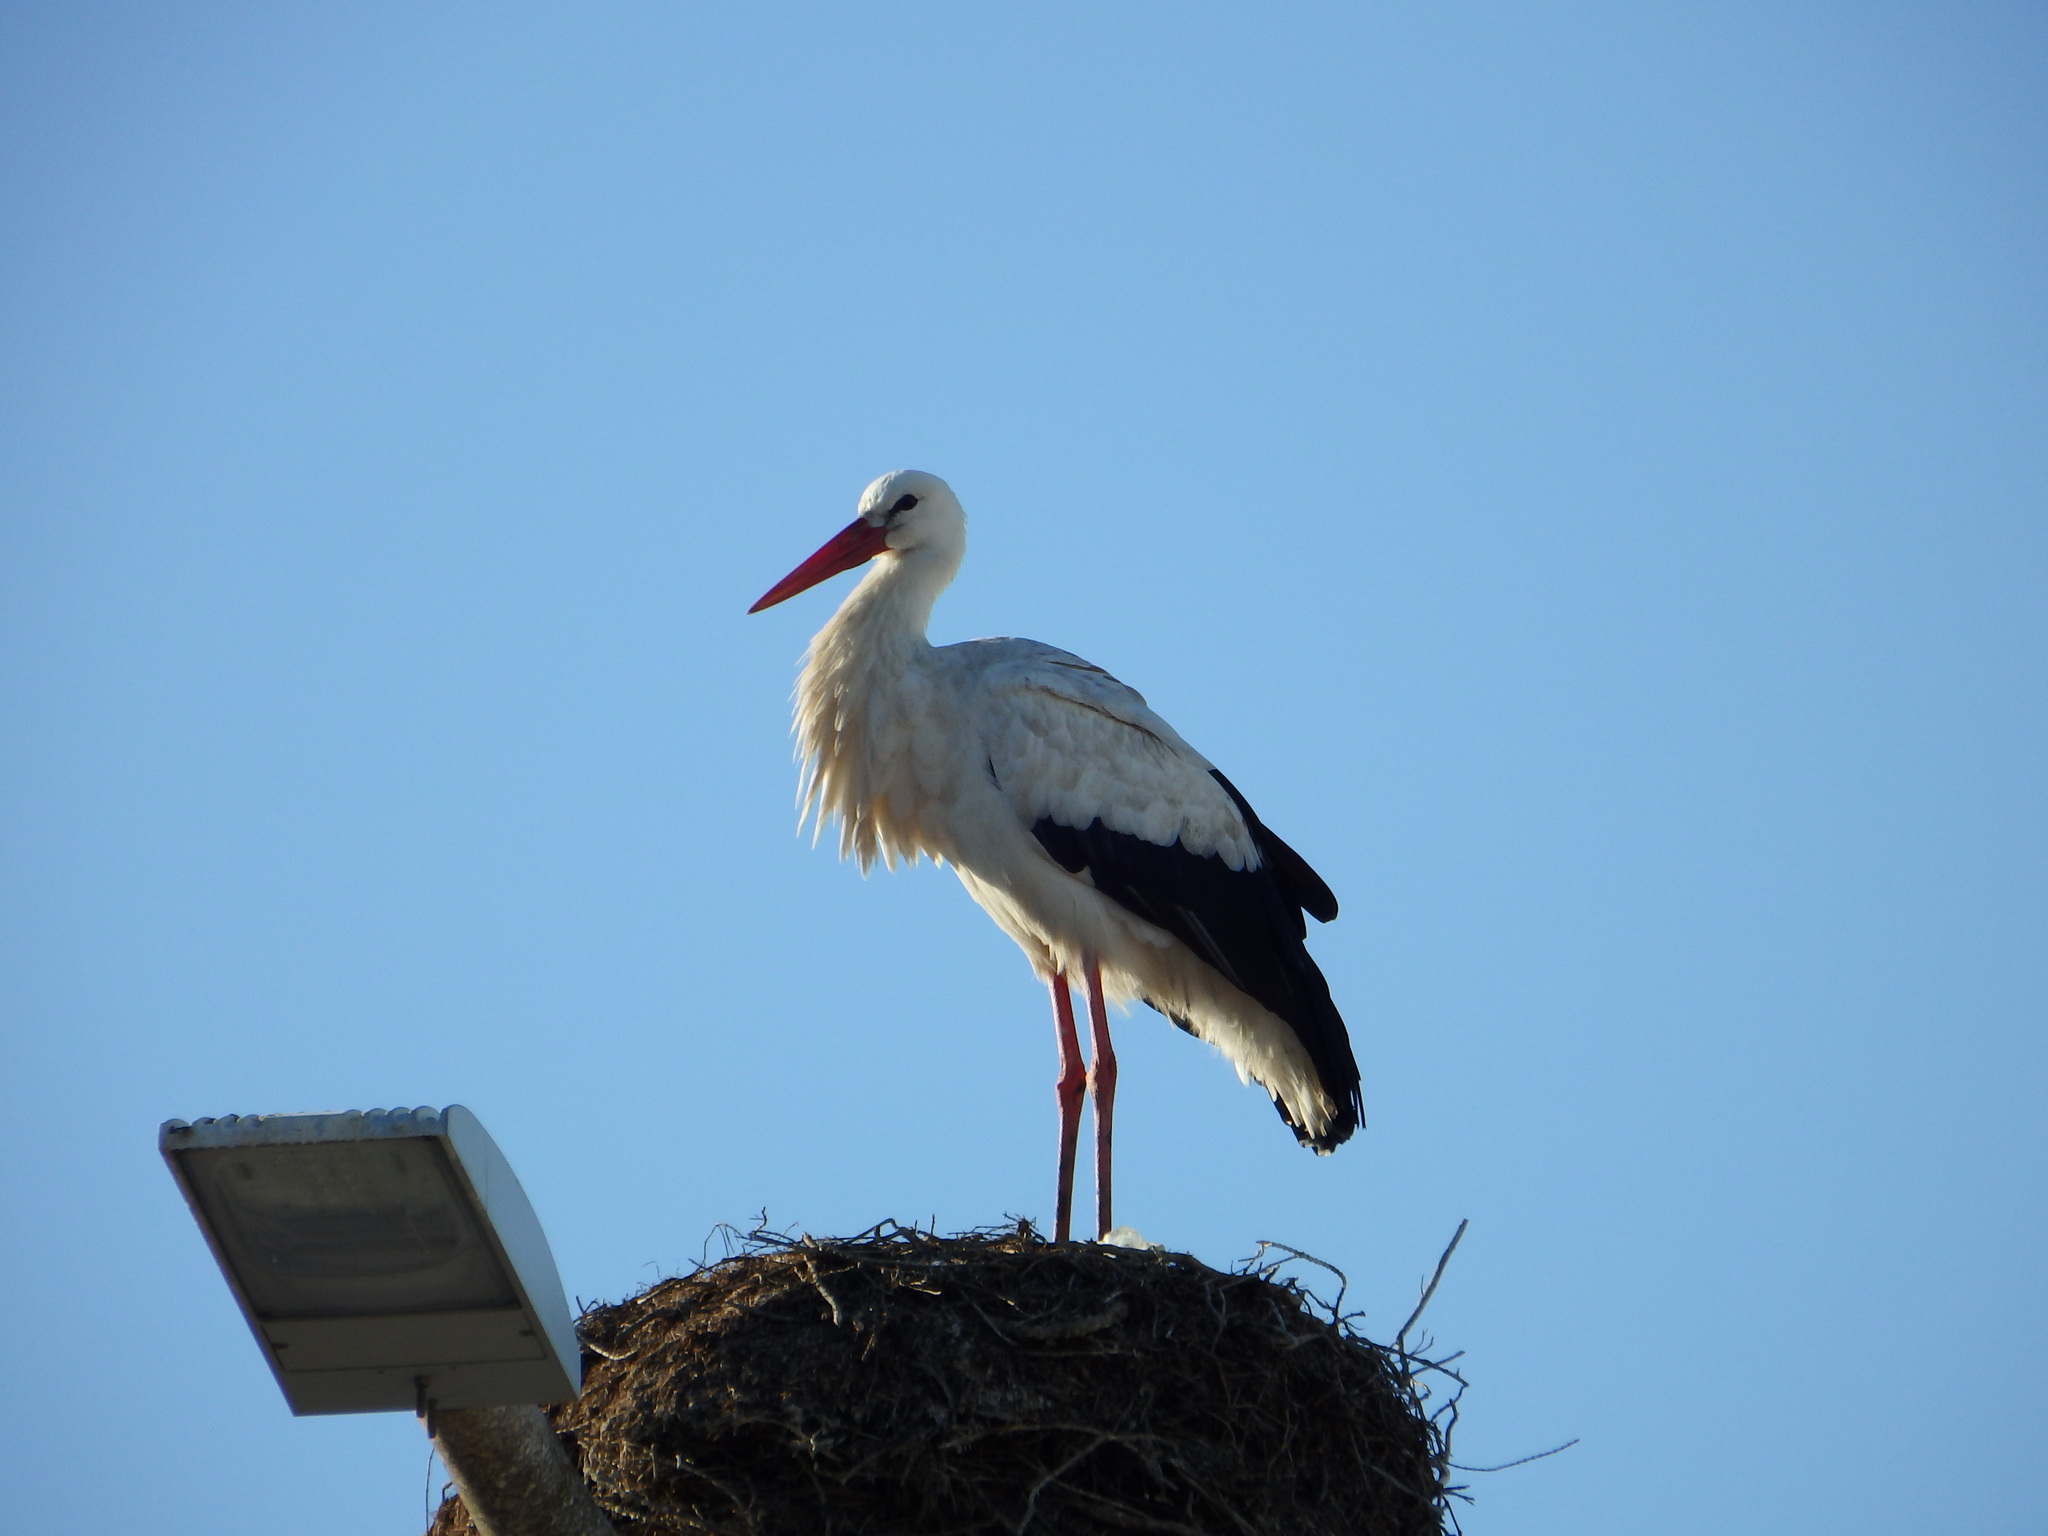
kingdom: Animalia
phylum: Chordata
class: Aves
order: Ciconiiformes
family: Ciconiidae
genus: Ciconia
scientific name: Ciconia ciconia
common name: White stork
